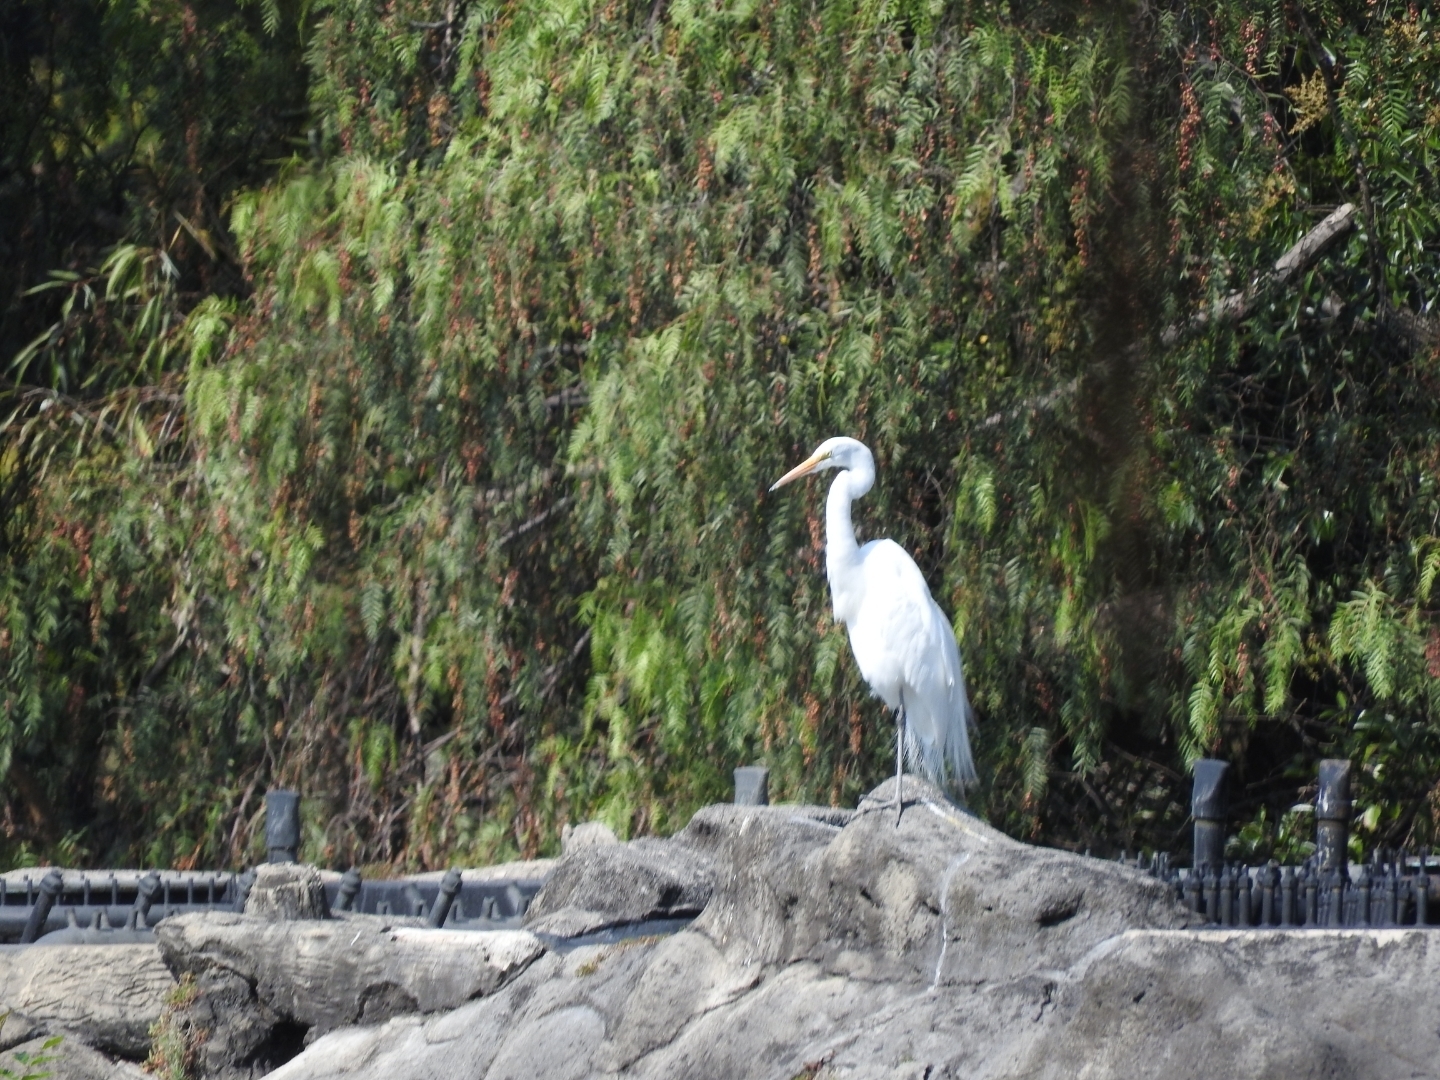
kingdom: Animalia
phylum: Chordata
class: Aves
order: Pelecaniformes
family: Ardeidae
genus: Ardea
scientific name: Ardea alba
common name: Great egret
